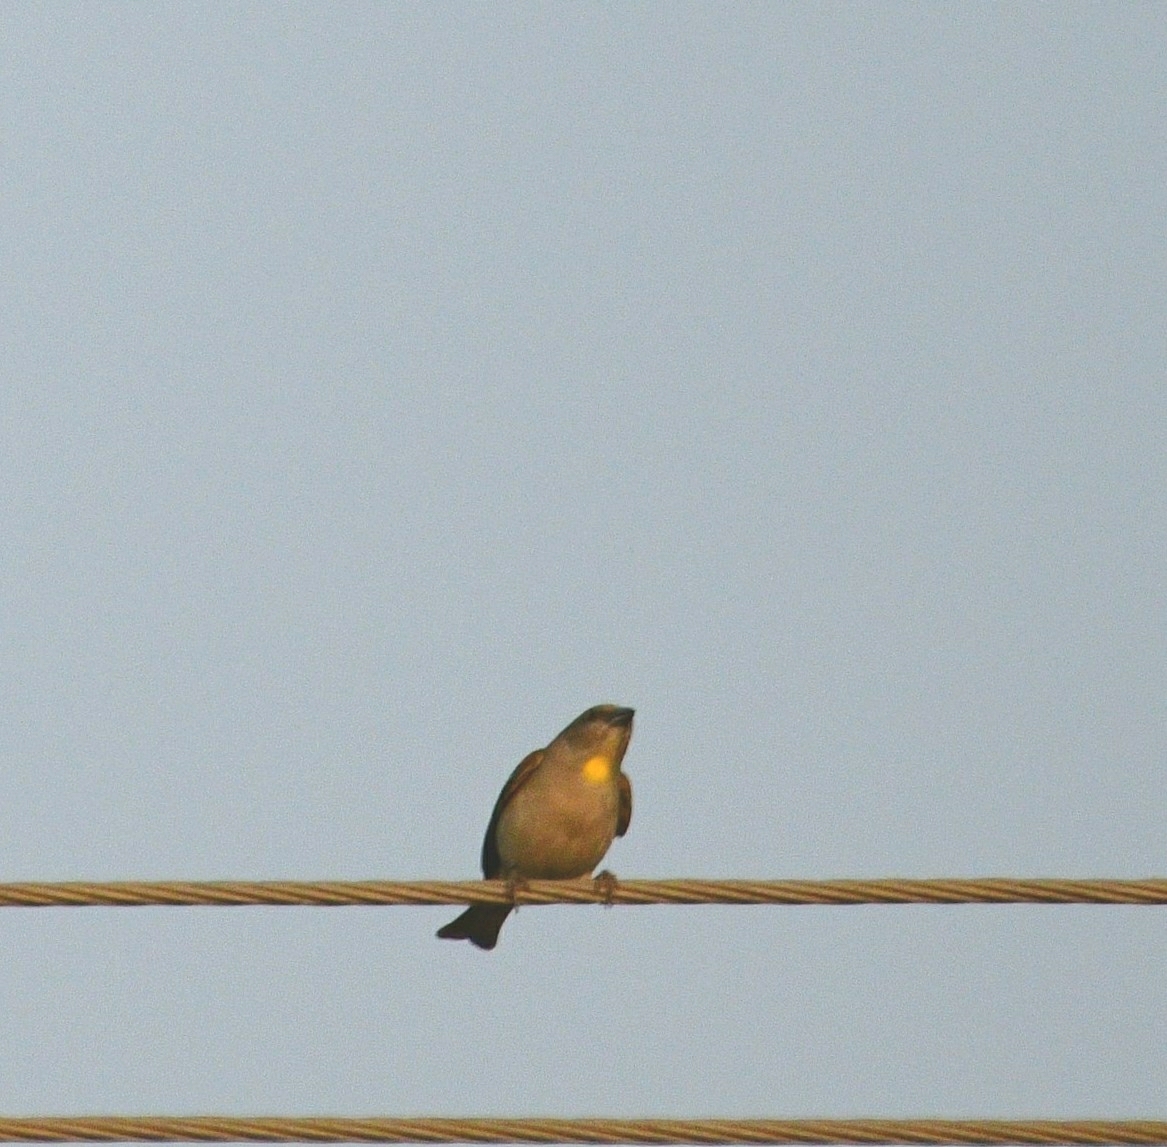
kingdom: Animalia
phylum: Chordata
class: Aves
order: Passeriformes
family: Passeridae
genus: Gymnoris
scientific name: Gymnoris xanthocollis
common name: Yellow-throated sparrow
